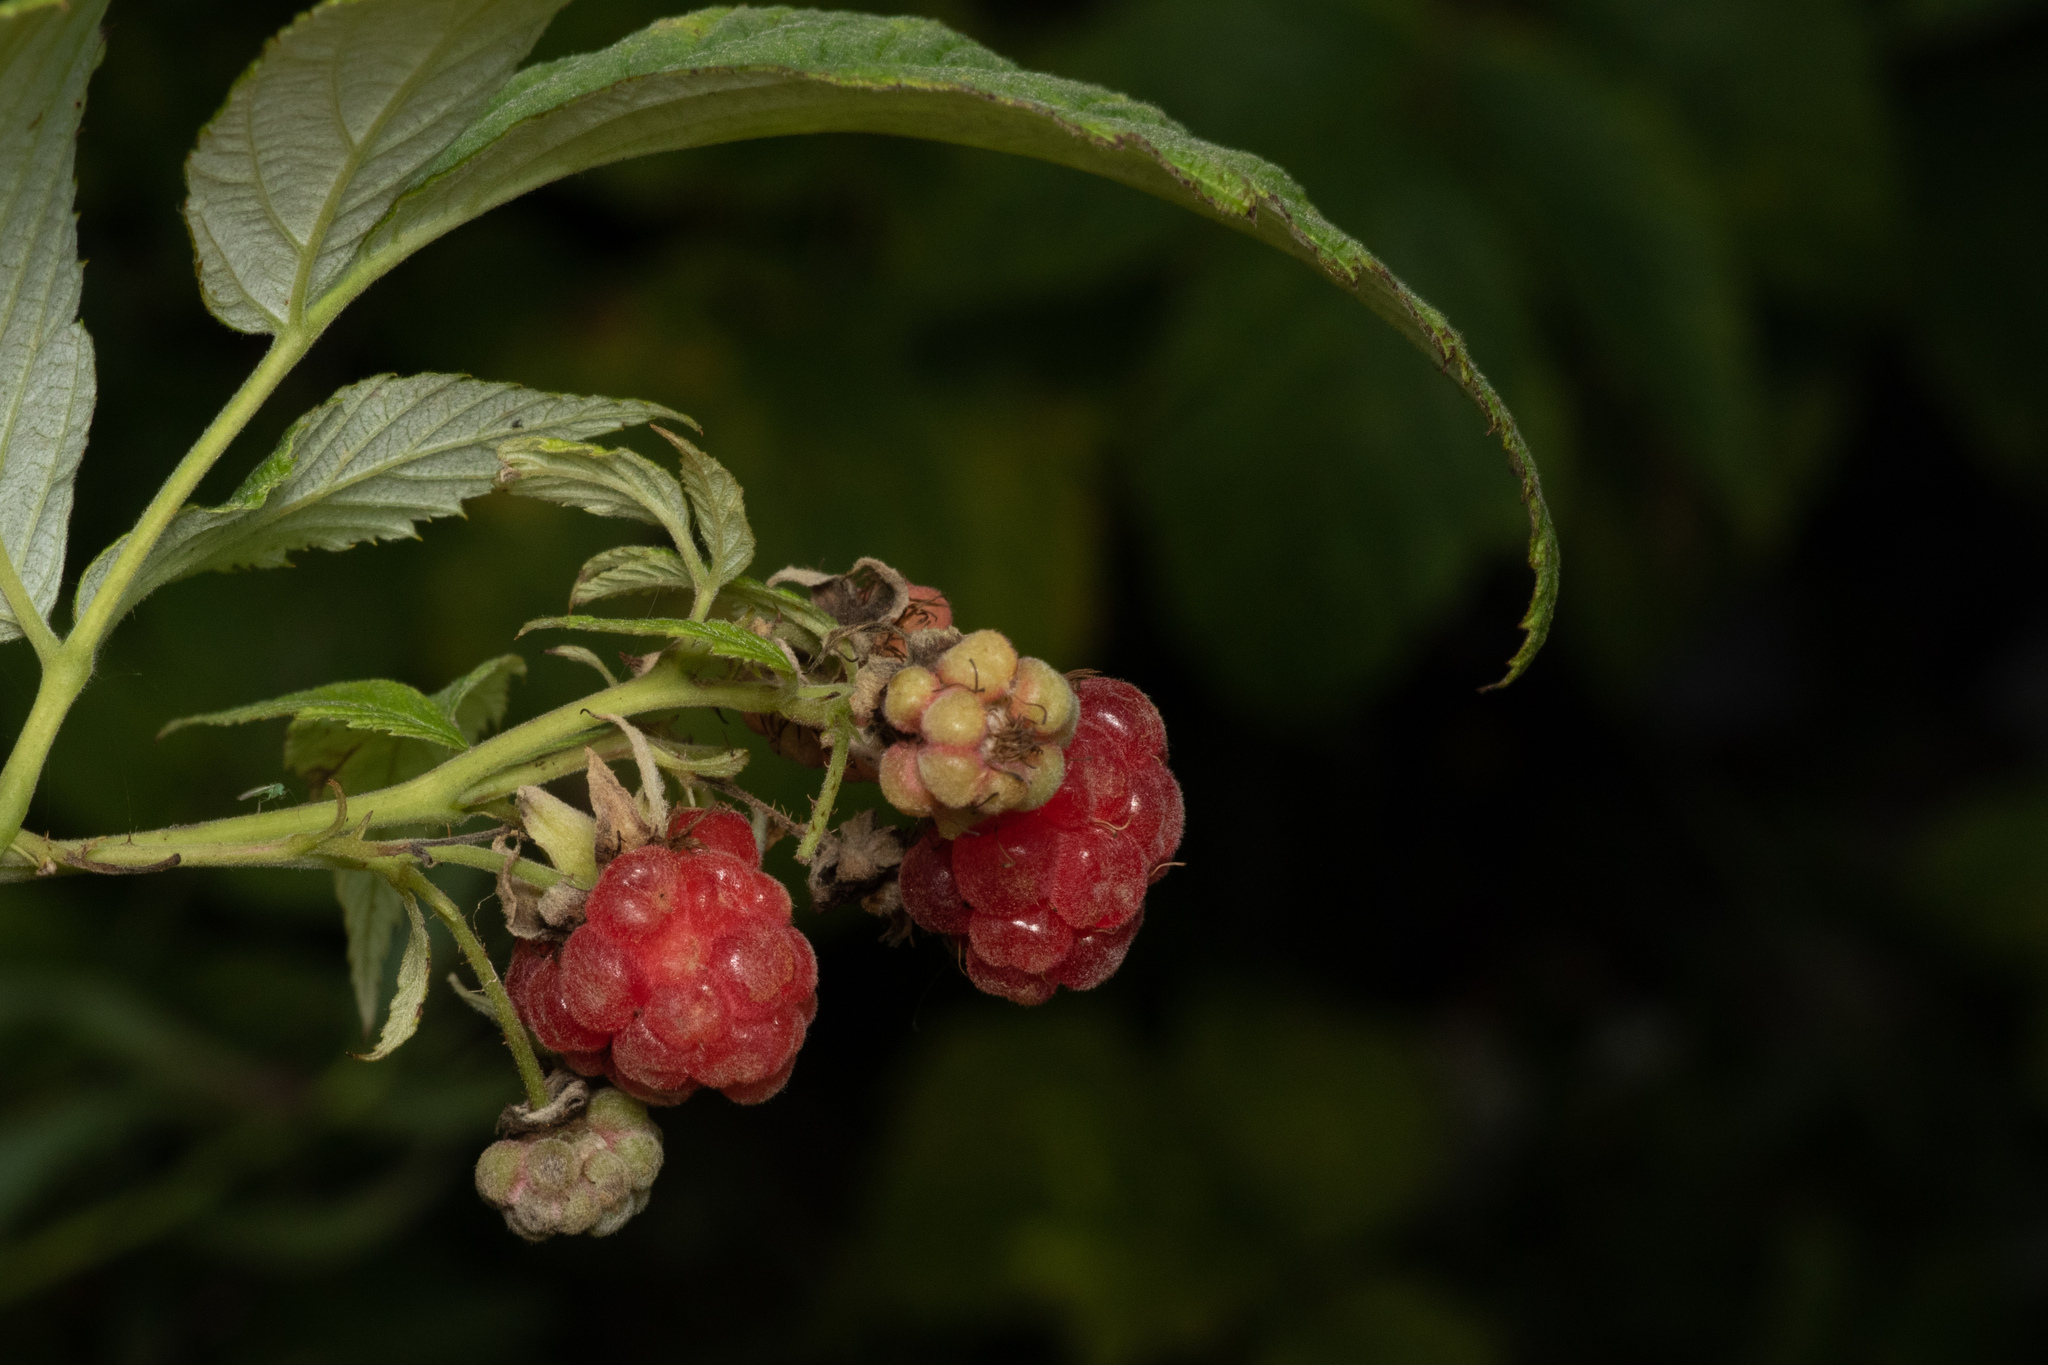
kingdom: Plantae
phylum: Tracheophyta
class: Magnoliopsida
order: Rosales
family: Rosaceae
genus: Rubus
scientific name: Rubus idaeus
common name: Raspberry
